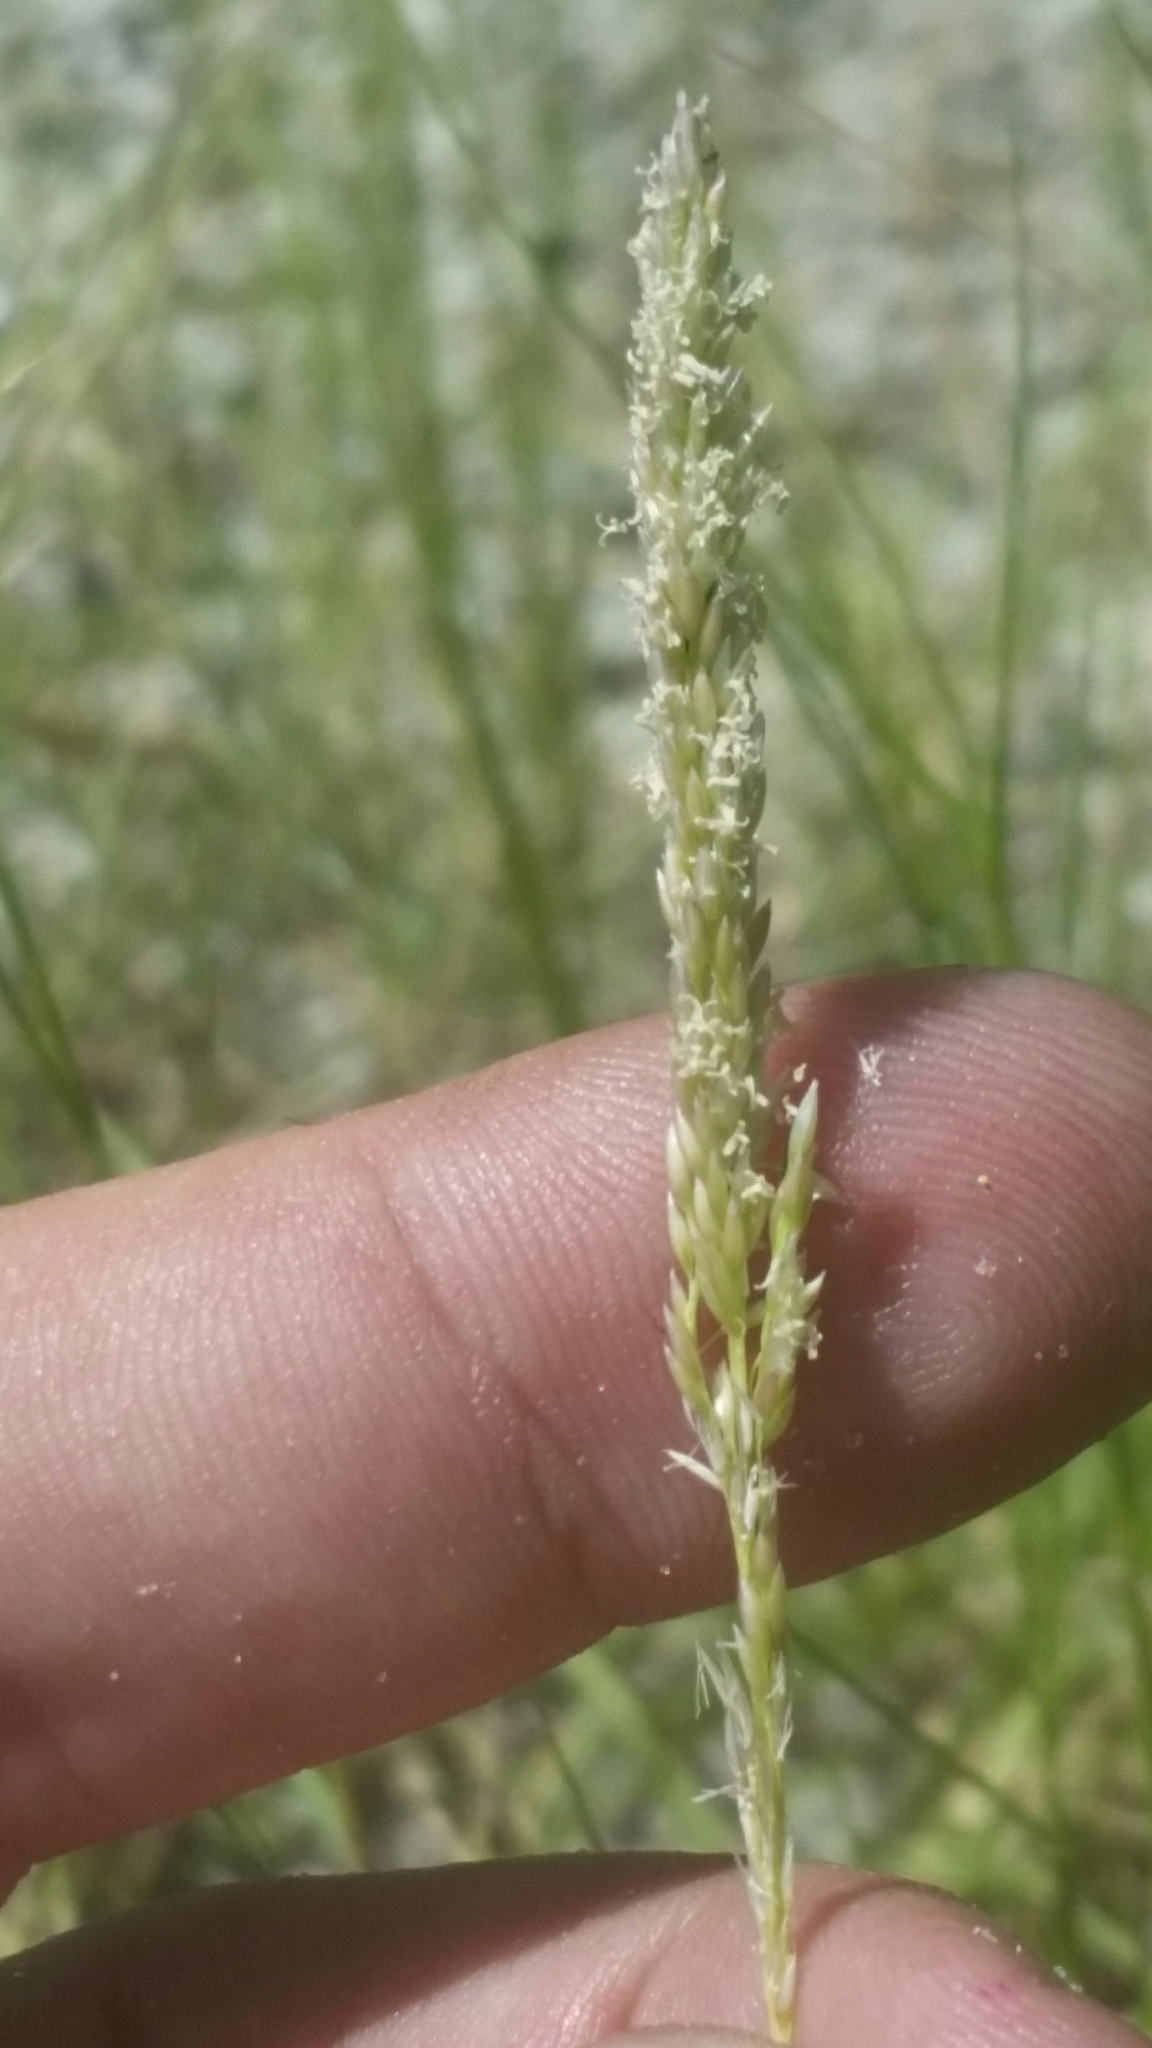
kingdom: Plantae
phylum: Tracheophyta
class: Liliopsida
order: Poales
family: Poaceae
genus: Sporobolus
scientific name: Sporobolus virginicus
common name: Beach dropseed
